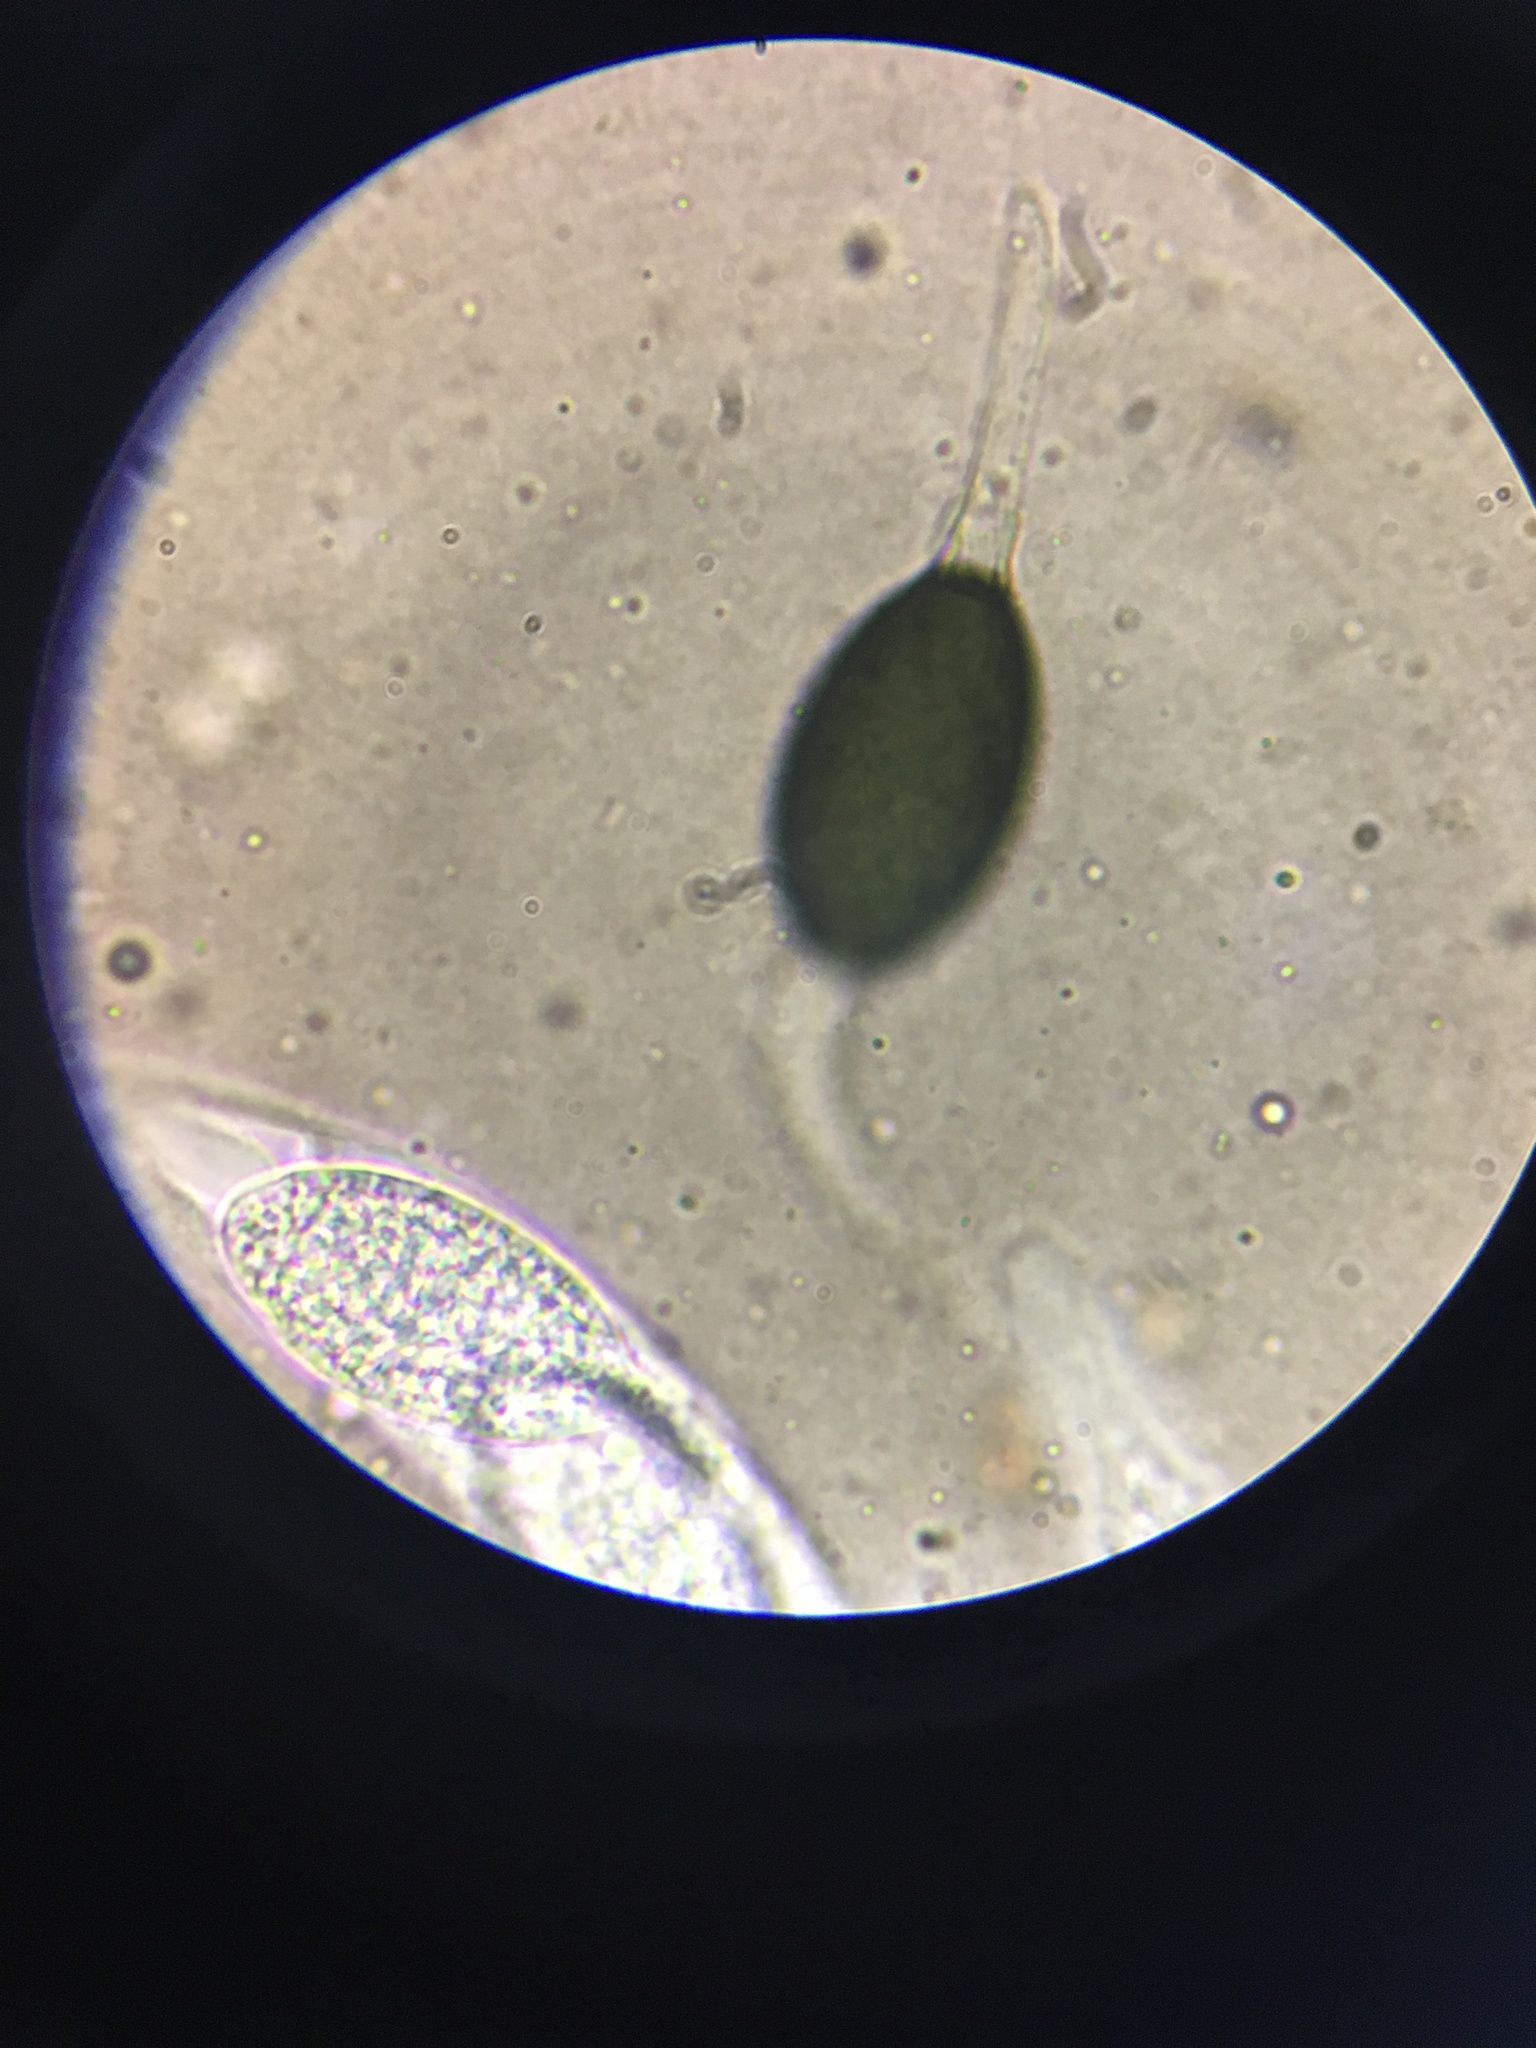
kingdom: Fungi
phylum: Ascomycota
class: Sordariomycetes
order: Sordariales
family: Podosporaceae
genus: Triangularia
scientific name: Triangularia comata
